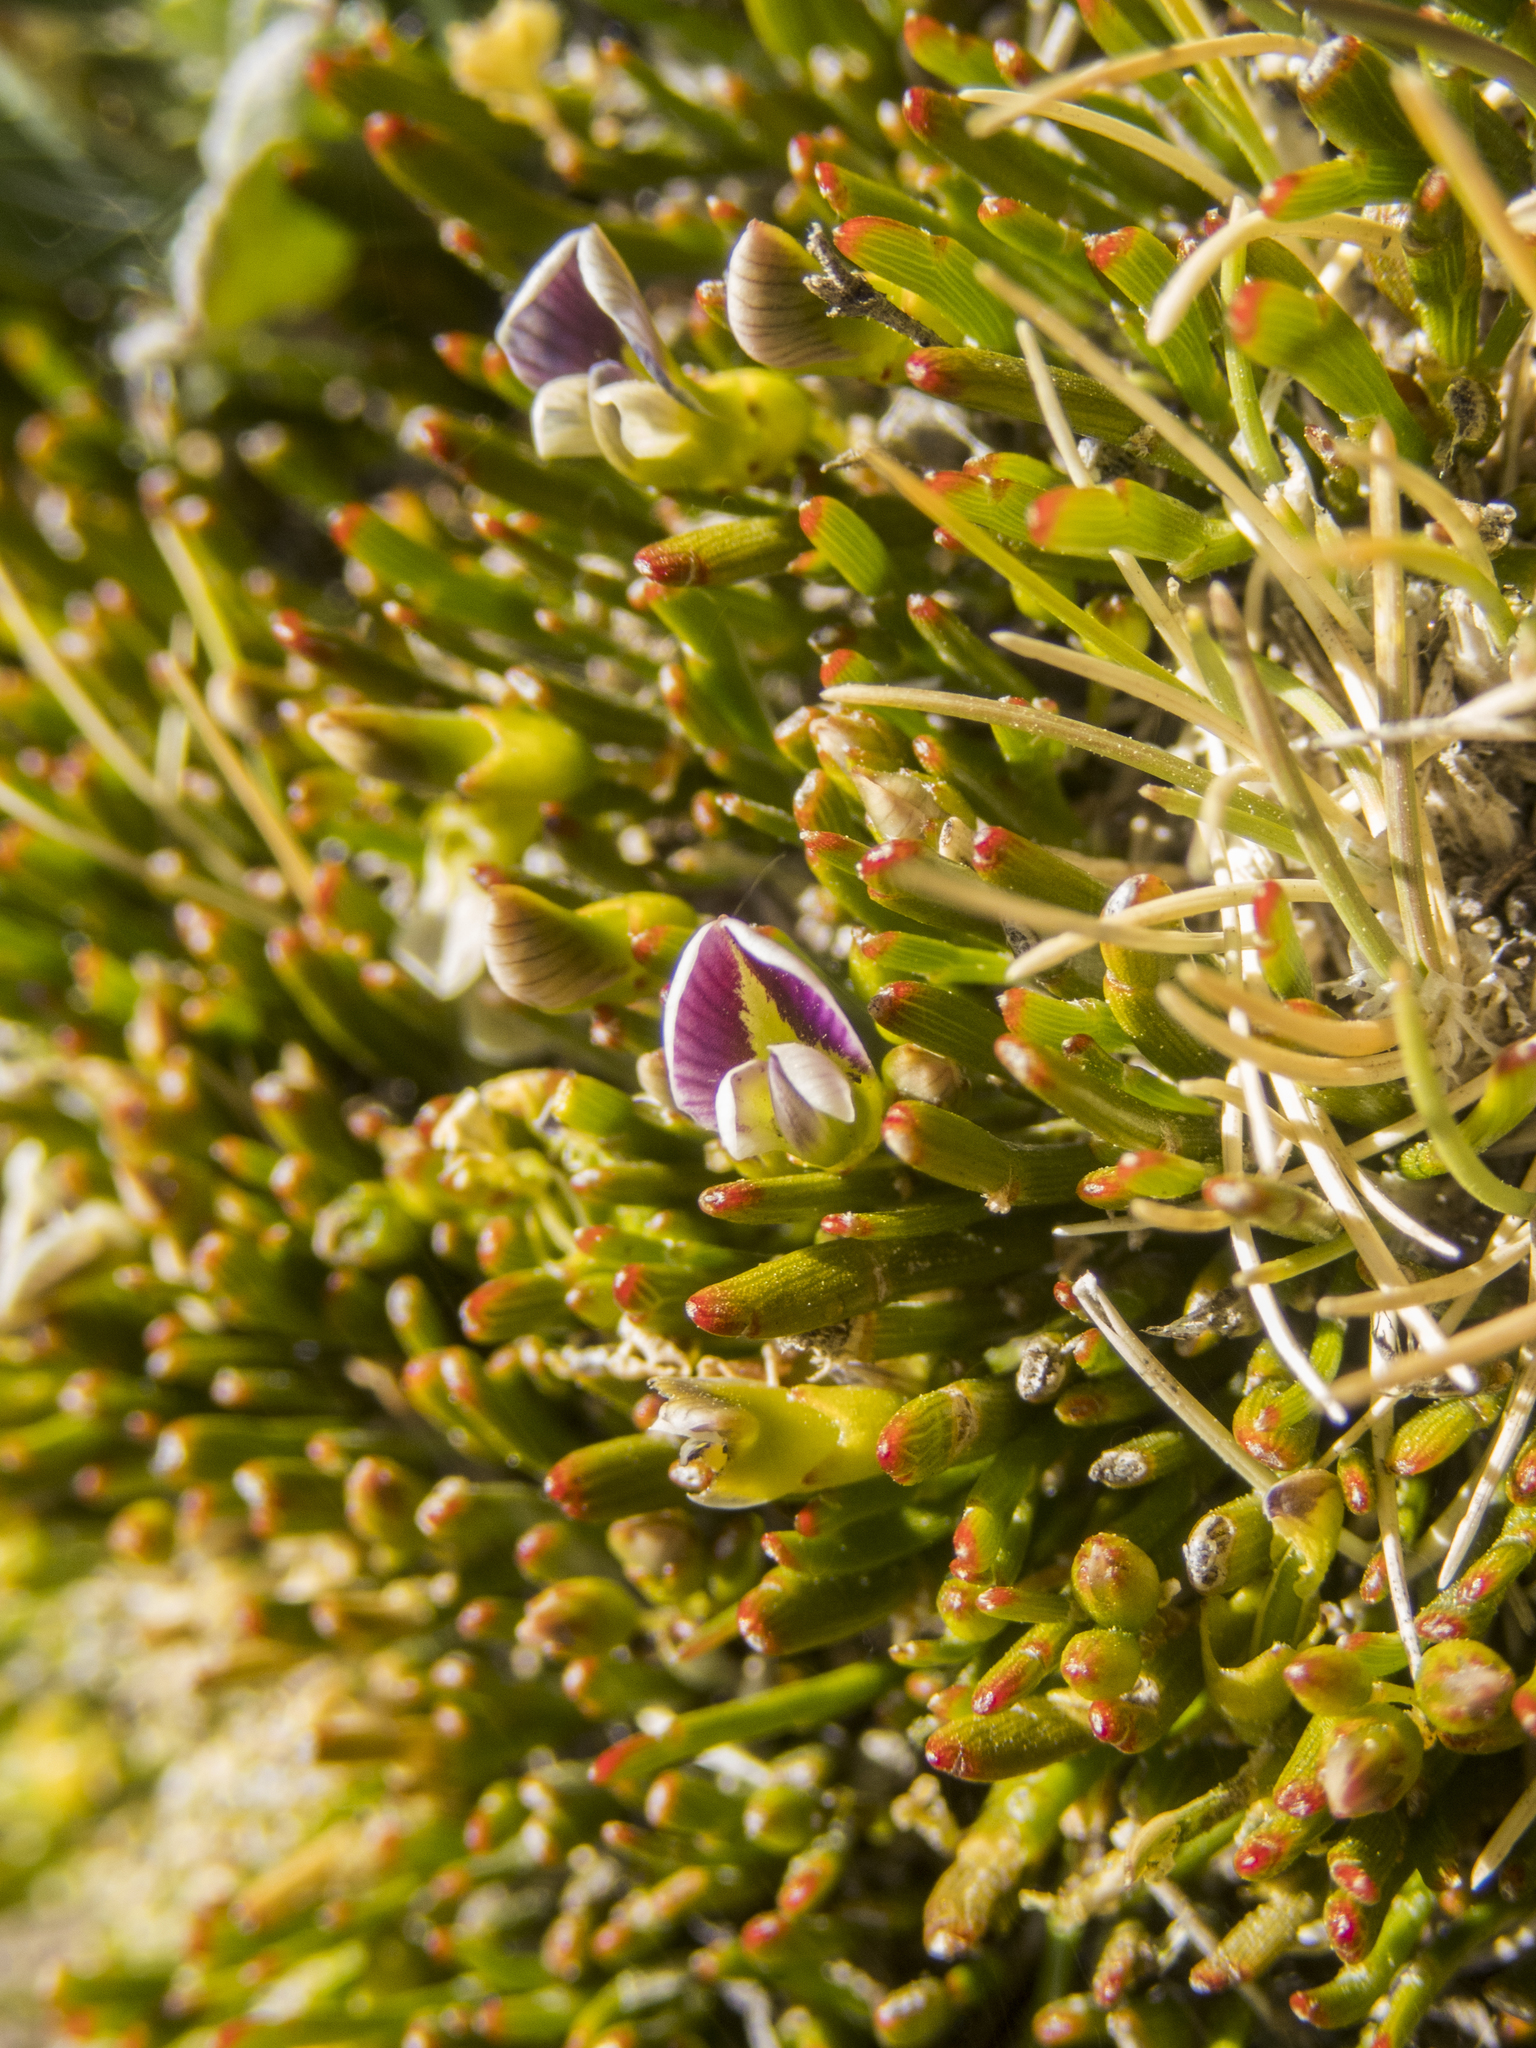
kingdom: Plantae
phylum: Tracheophyta
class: Magnoliopsida
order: Fabales
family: Fabaceae
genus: Carmichaelia
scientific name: Carmichaelia nana
